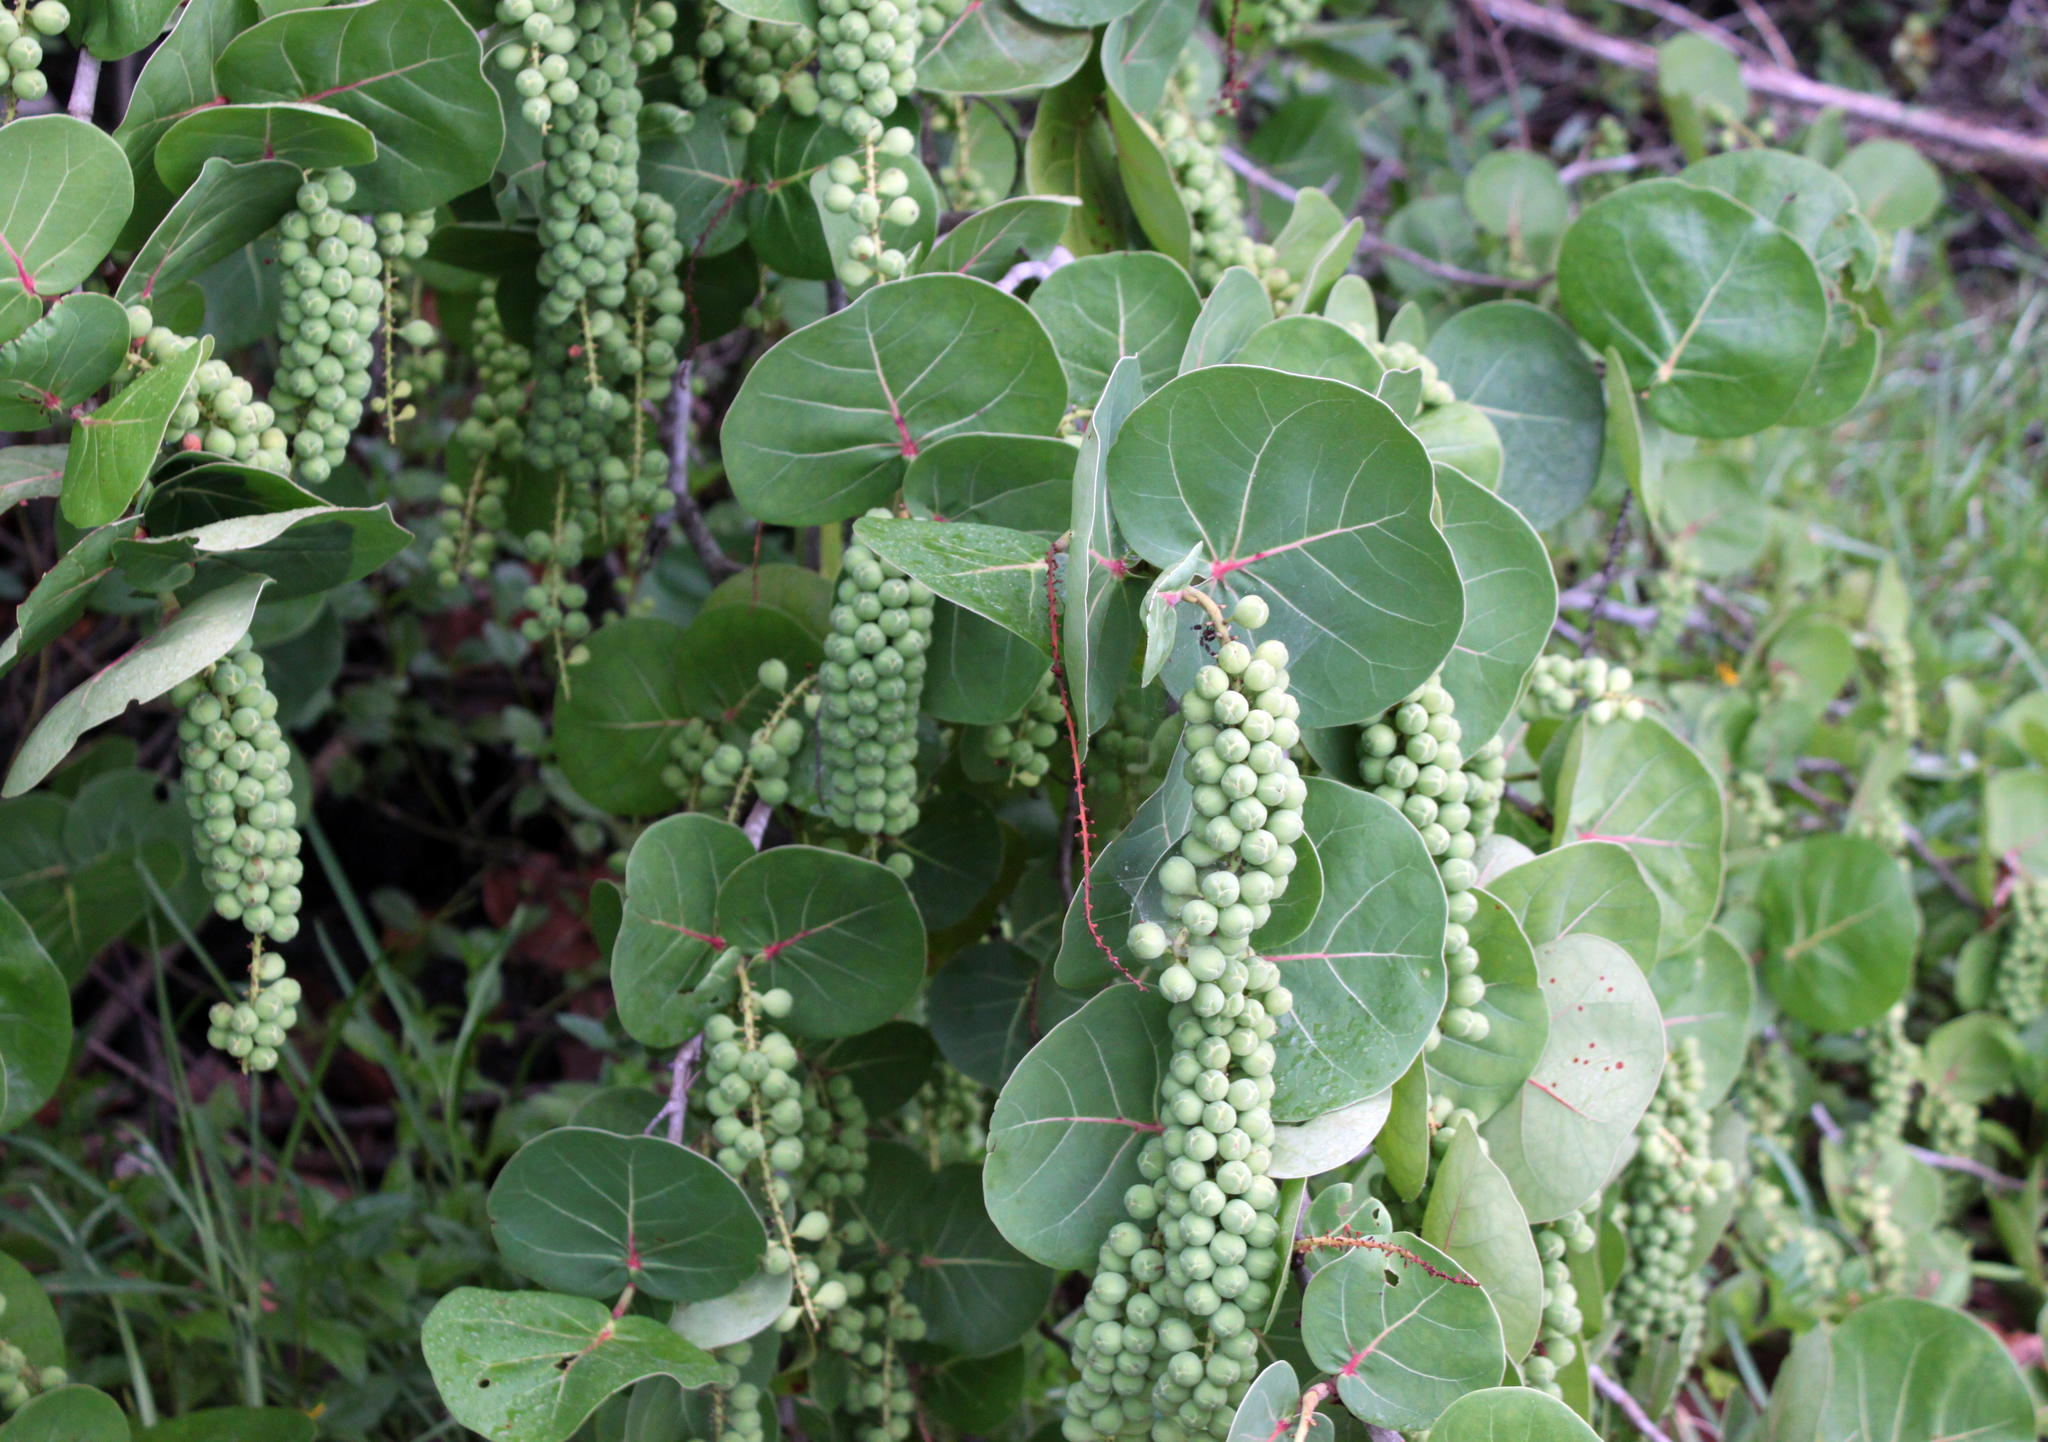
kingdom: Plantae
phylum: Tracheophyta
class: Magnoliopsida
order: Caryophyllales
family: Polygonaceae
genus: Coccoloba
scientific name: Coccoloba uvifera
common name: Seagrape
